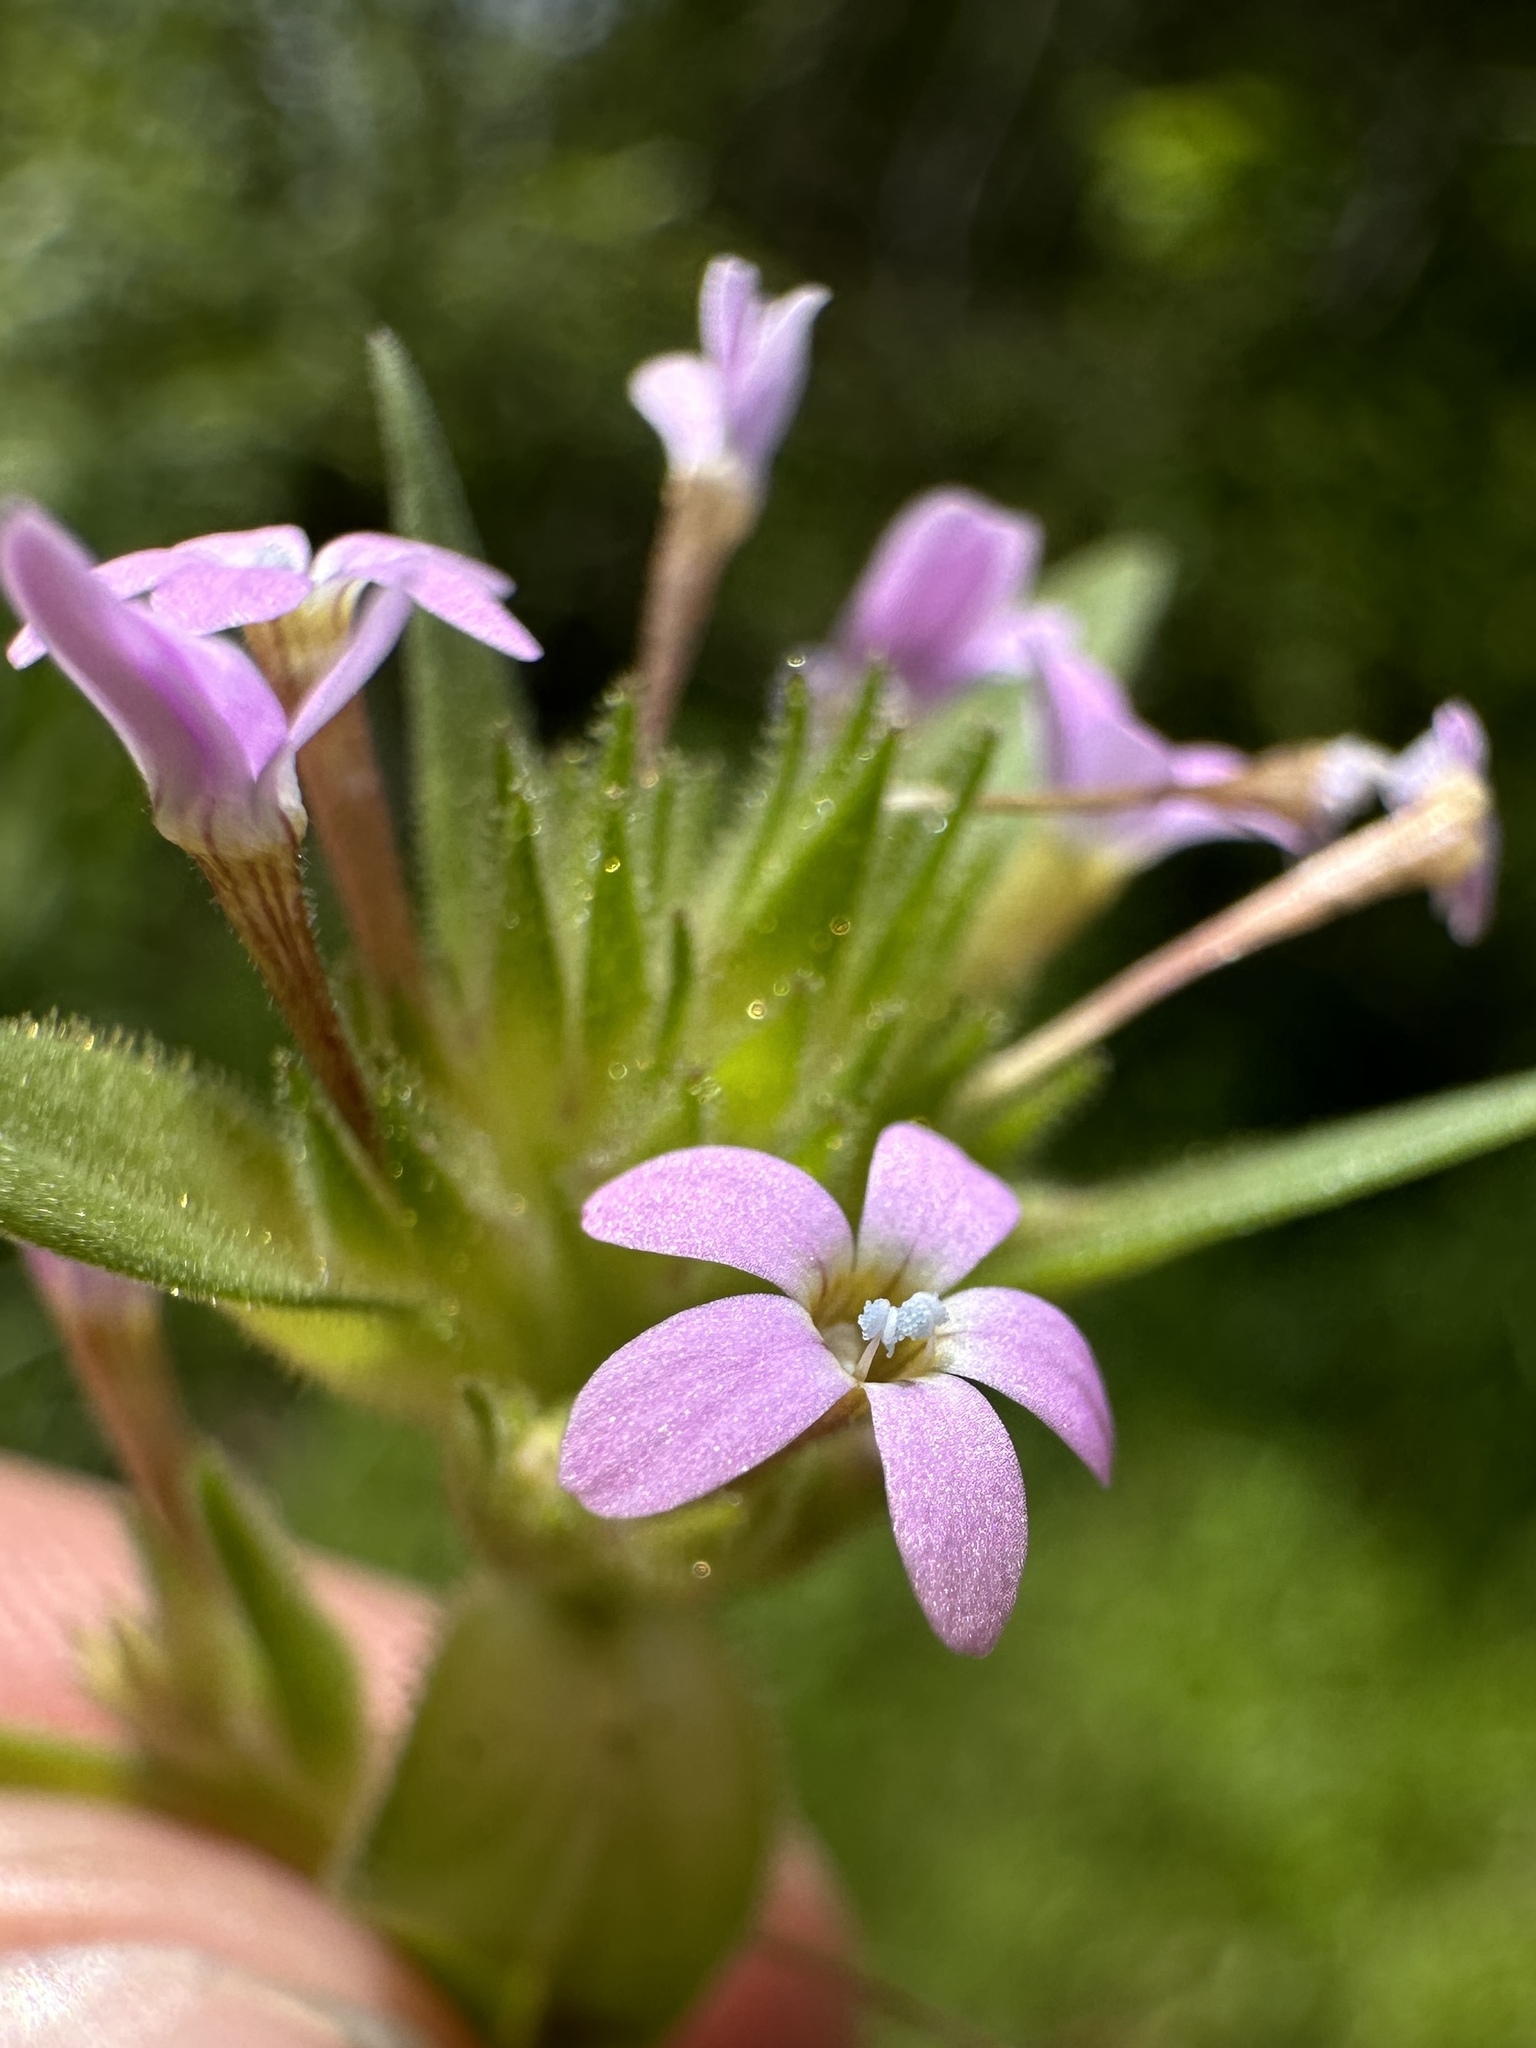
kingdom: Plantae
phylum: Tracheophyta
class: Magnoliopsida
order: Ericales
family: Polemoniaceae
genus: Collomia
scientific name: Collomia linearis
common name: Tiny trumpet
